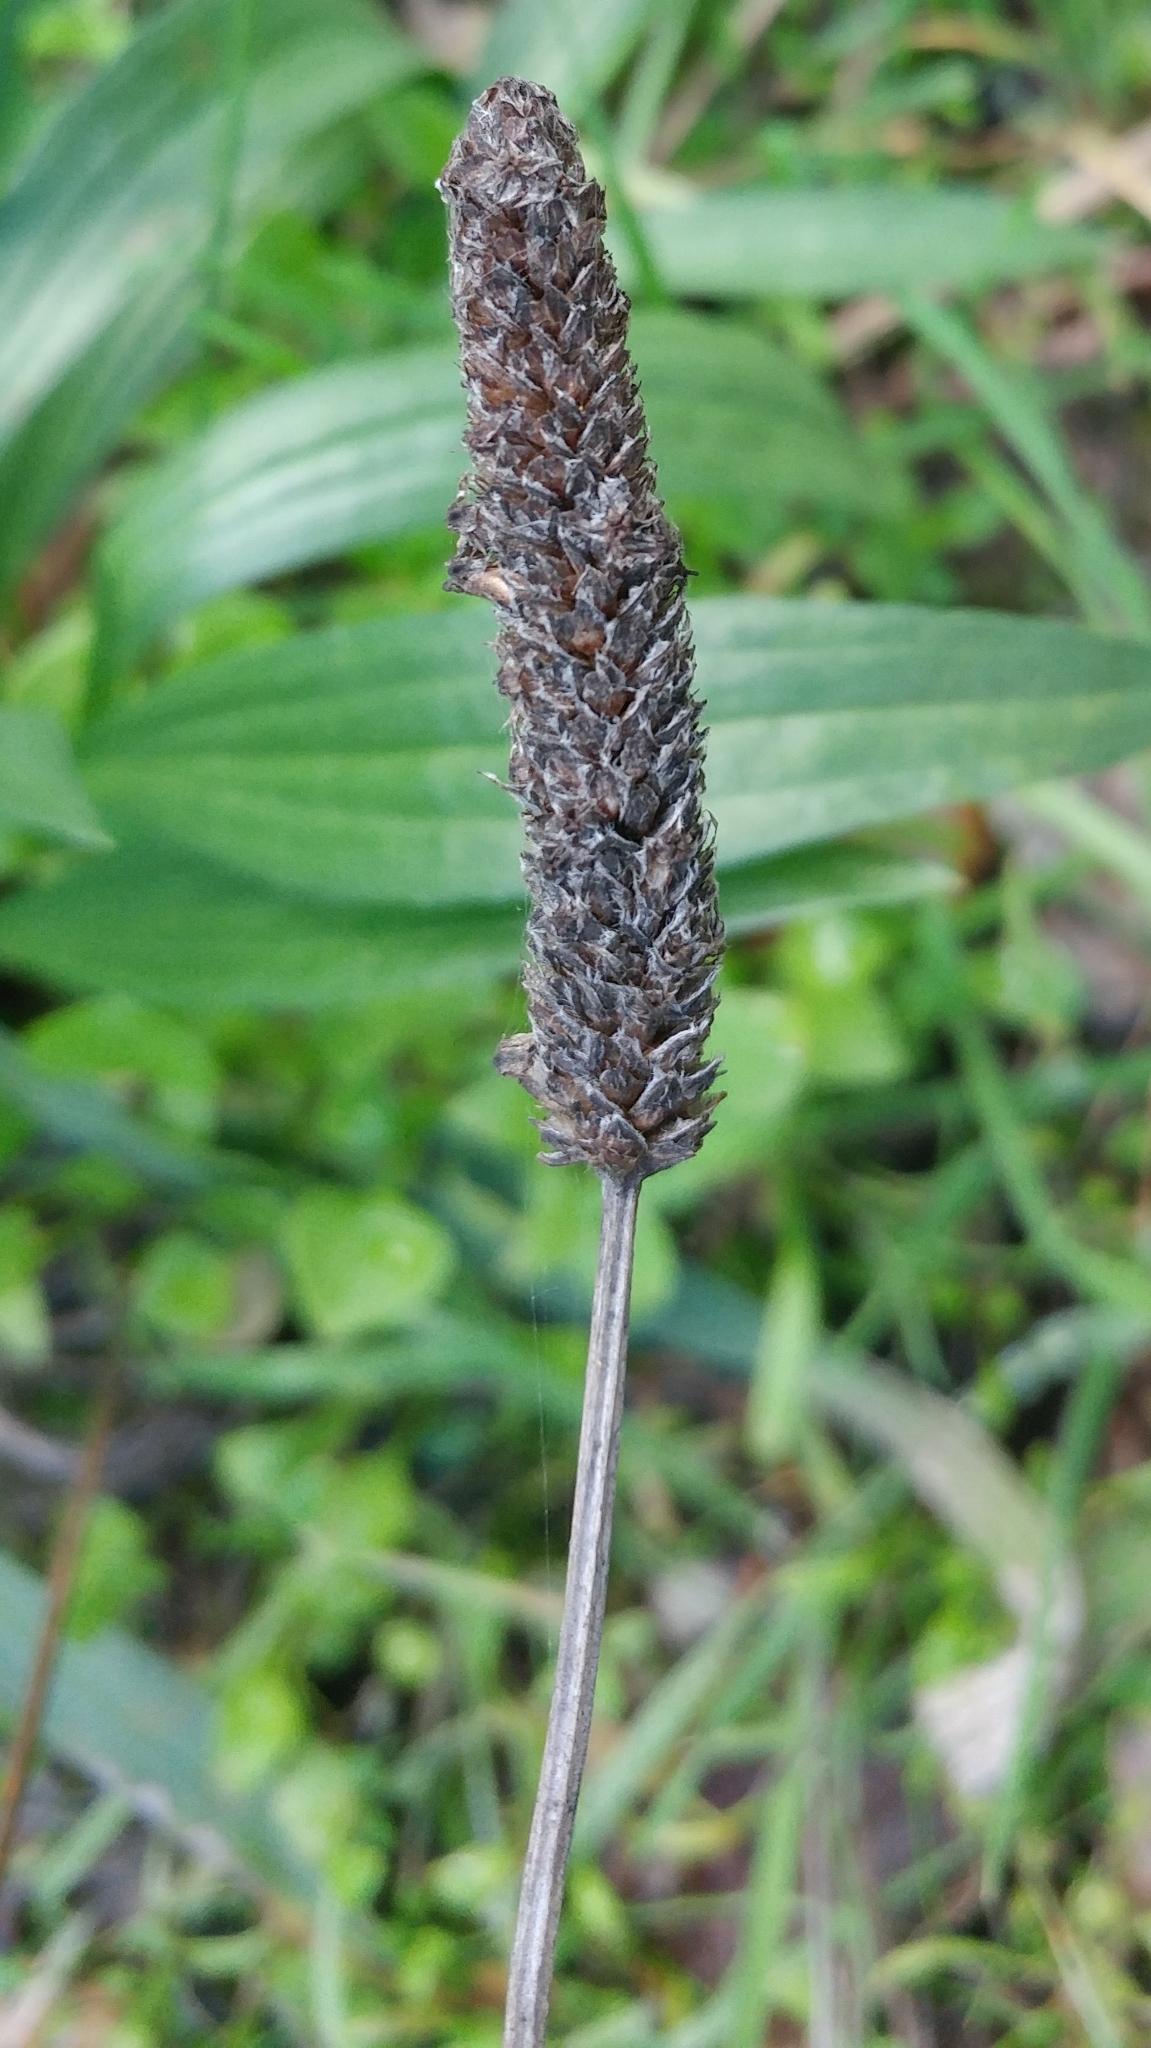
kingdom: Plantae
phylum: Tracheophyta
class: Magnoliopsida
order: Lamiales
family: Plantaginaceae
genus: Plantago
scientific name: Plantago lanceolata
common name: Ribwort plantain
